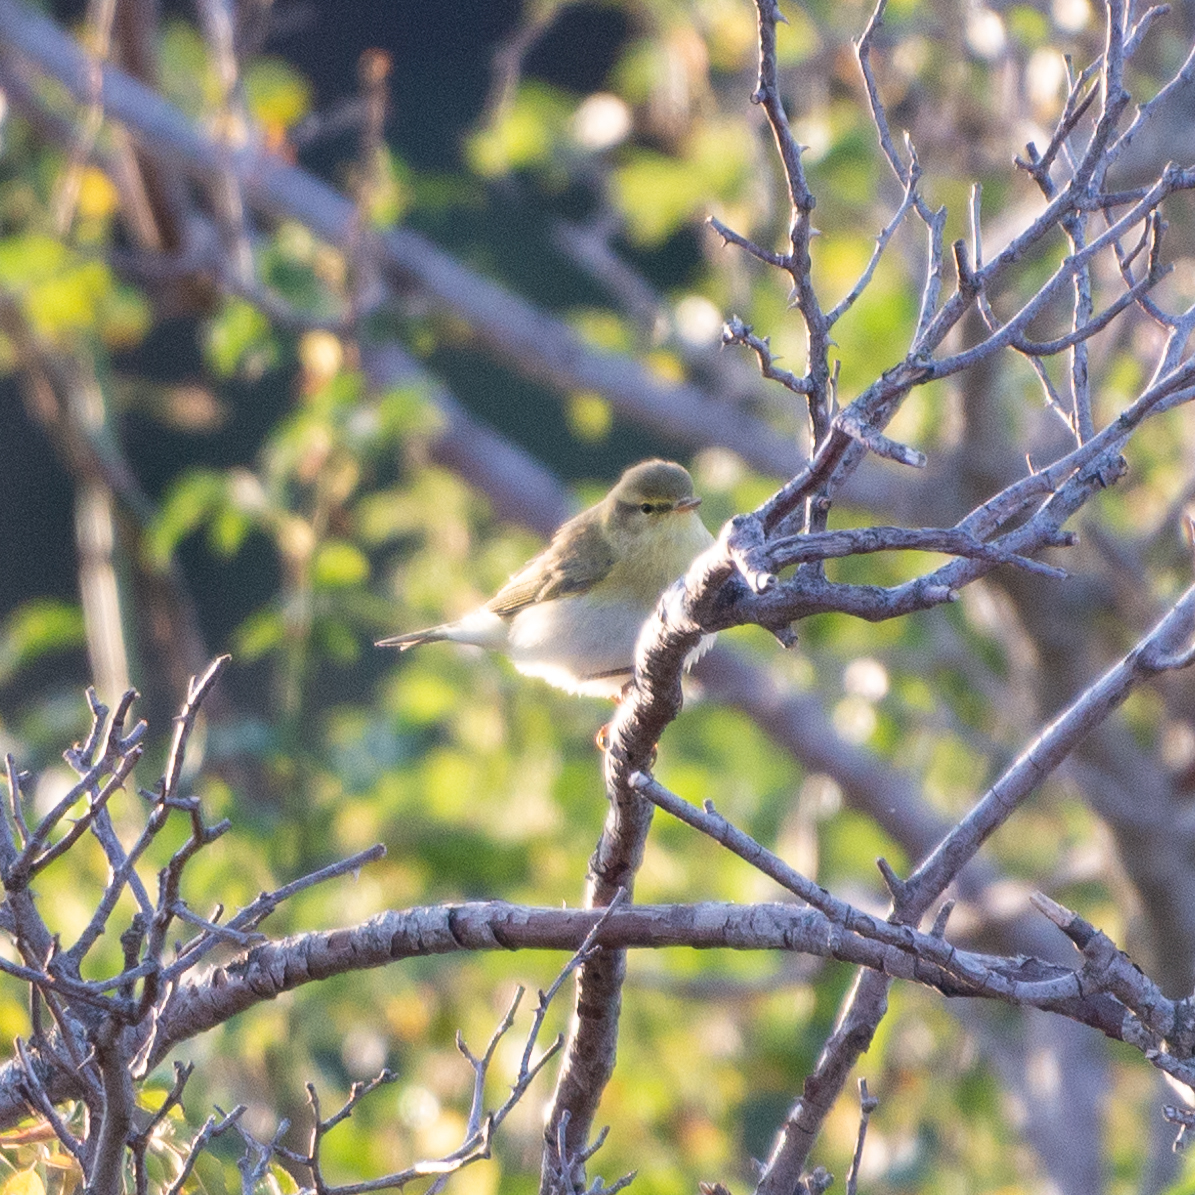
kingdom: Animalia
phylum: Chordata
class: Aves
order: Passeriformes
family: Phylloscopidae
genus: Phylloscopus
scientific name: Phylloscopus trochilus
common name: Willow warbler
